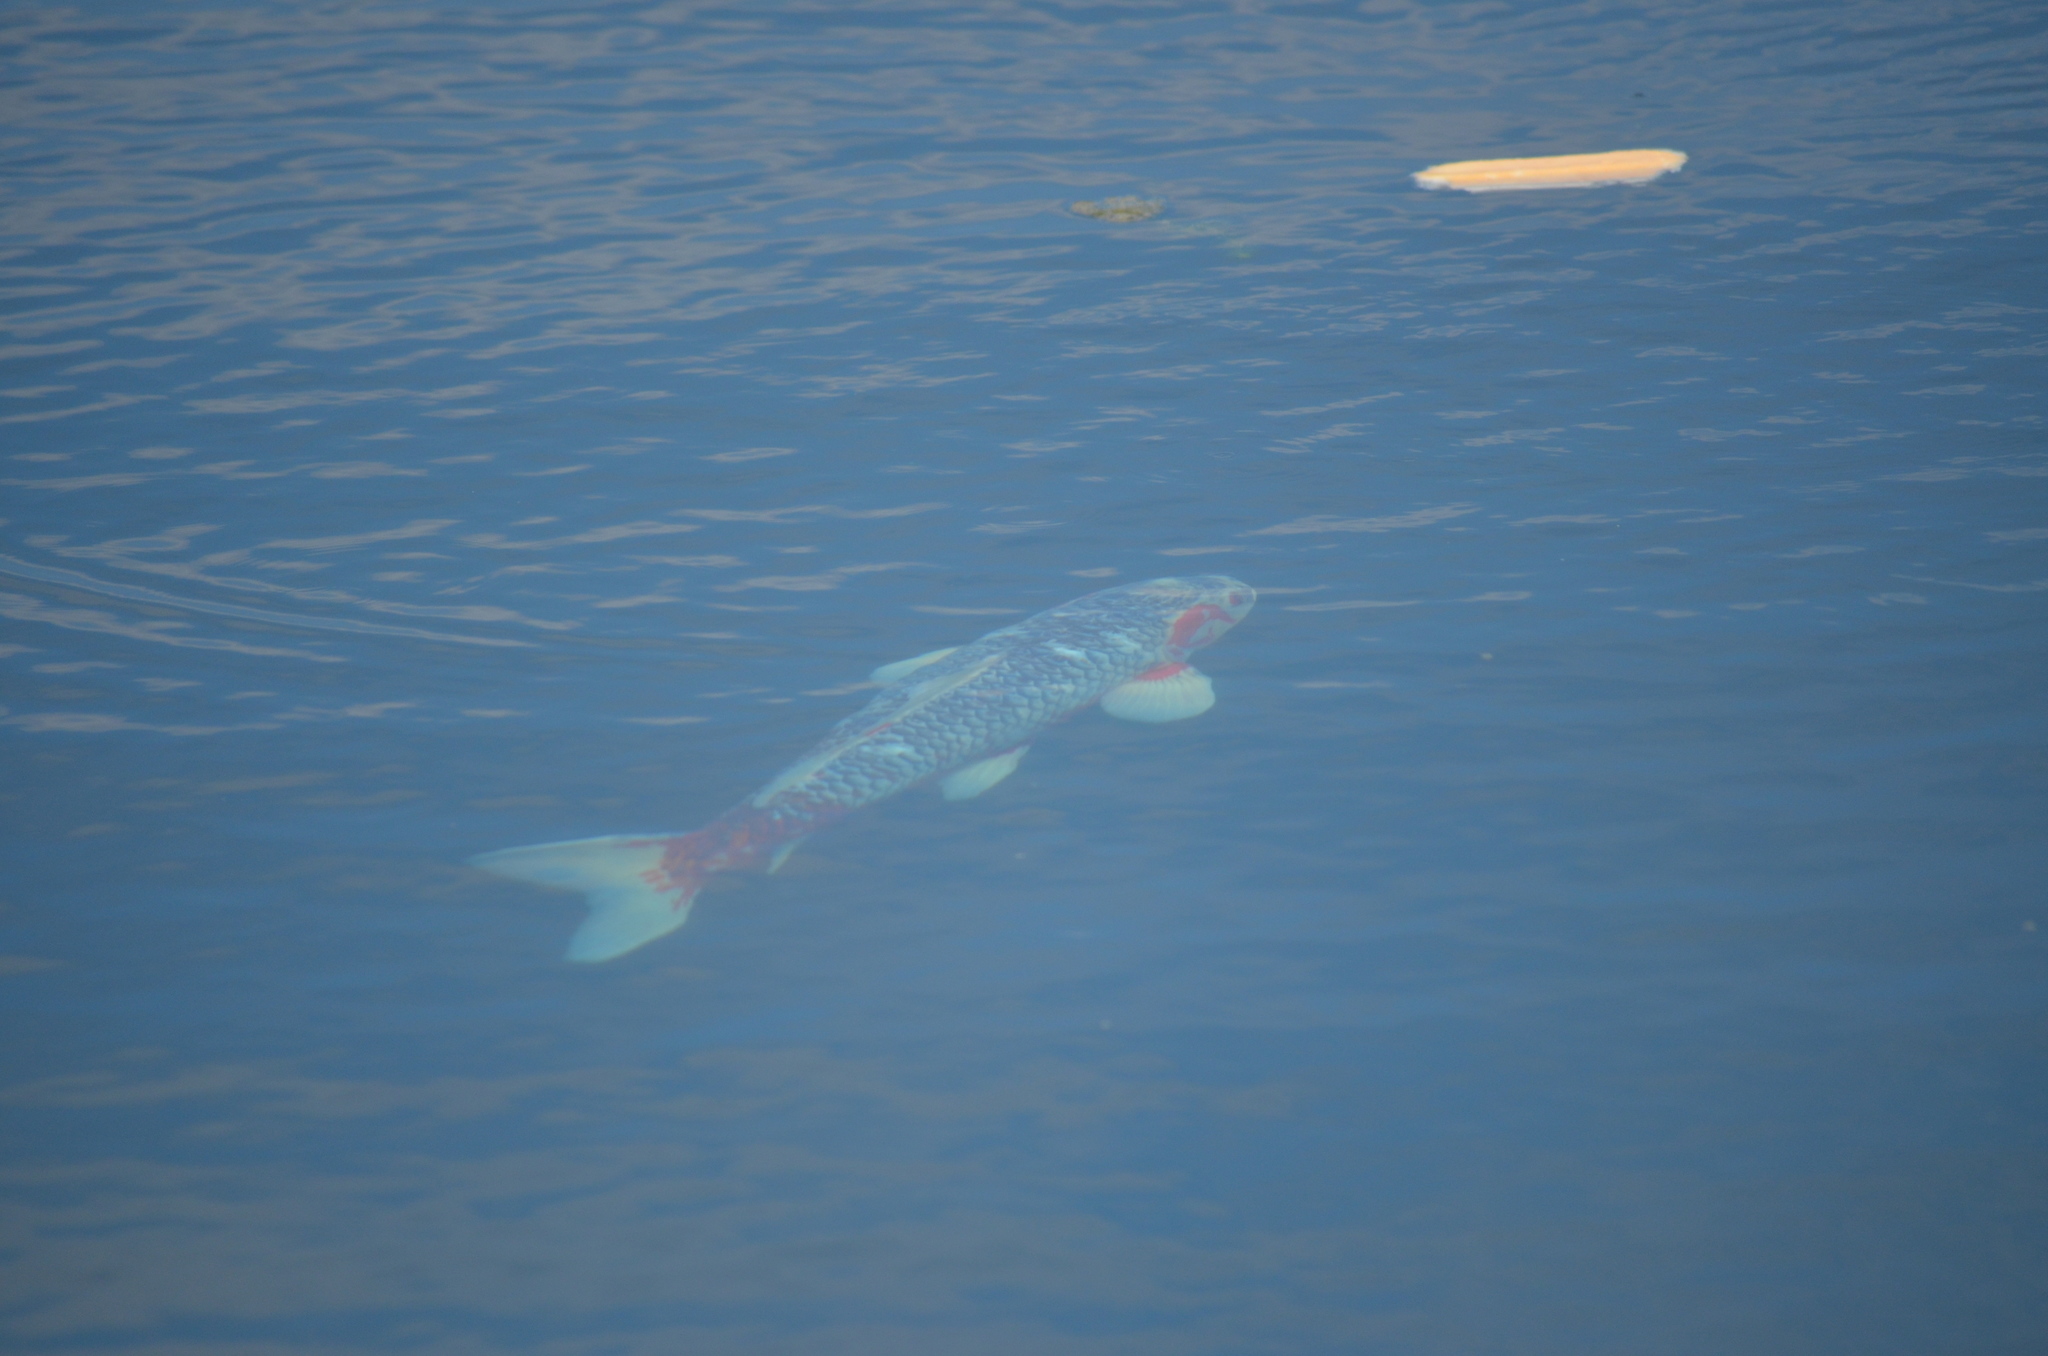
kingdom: Animalia
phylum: Chordata
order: Cypriniformes
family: Cyprinidae
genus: Cyprinus
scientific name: Cyprinus rubrofuscus
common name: Koi
